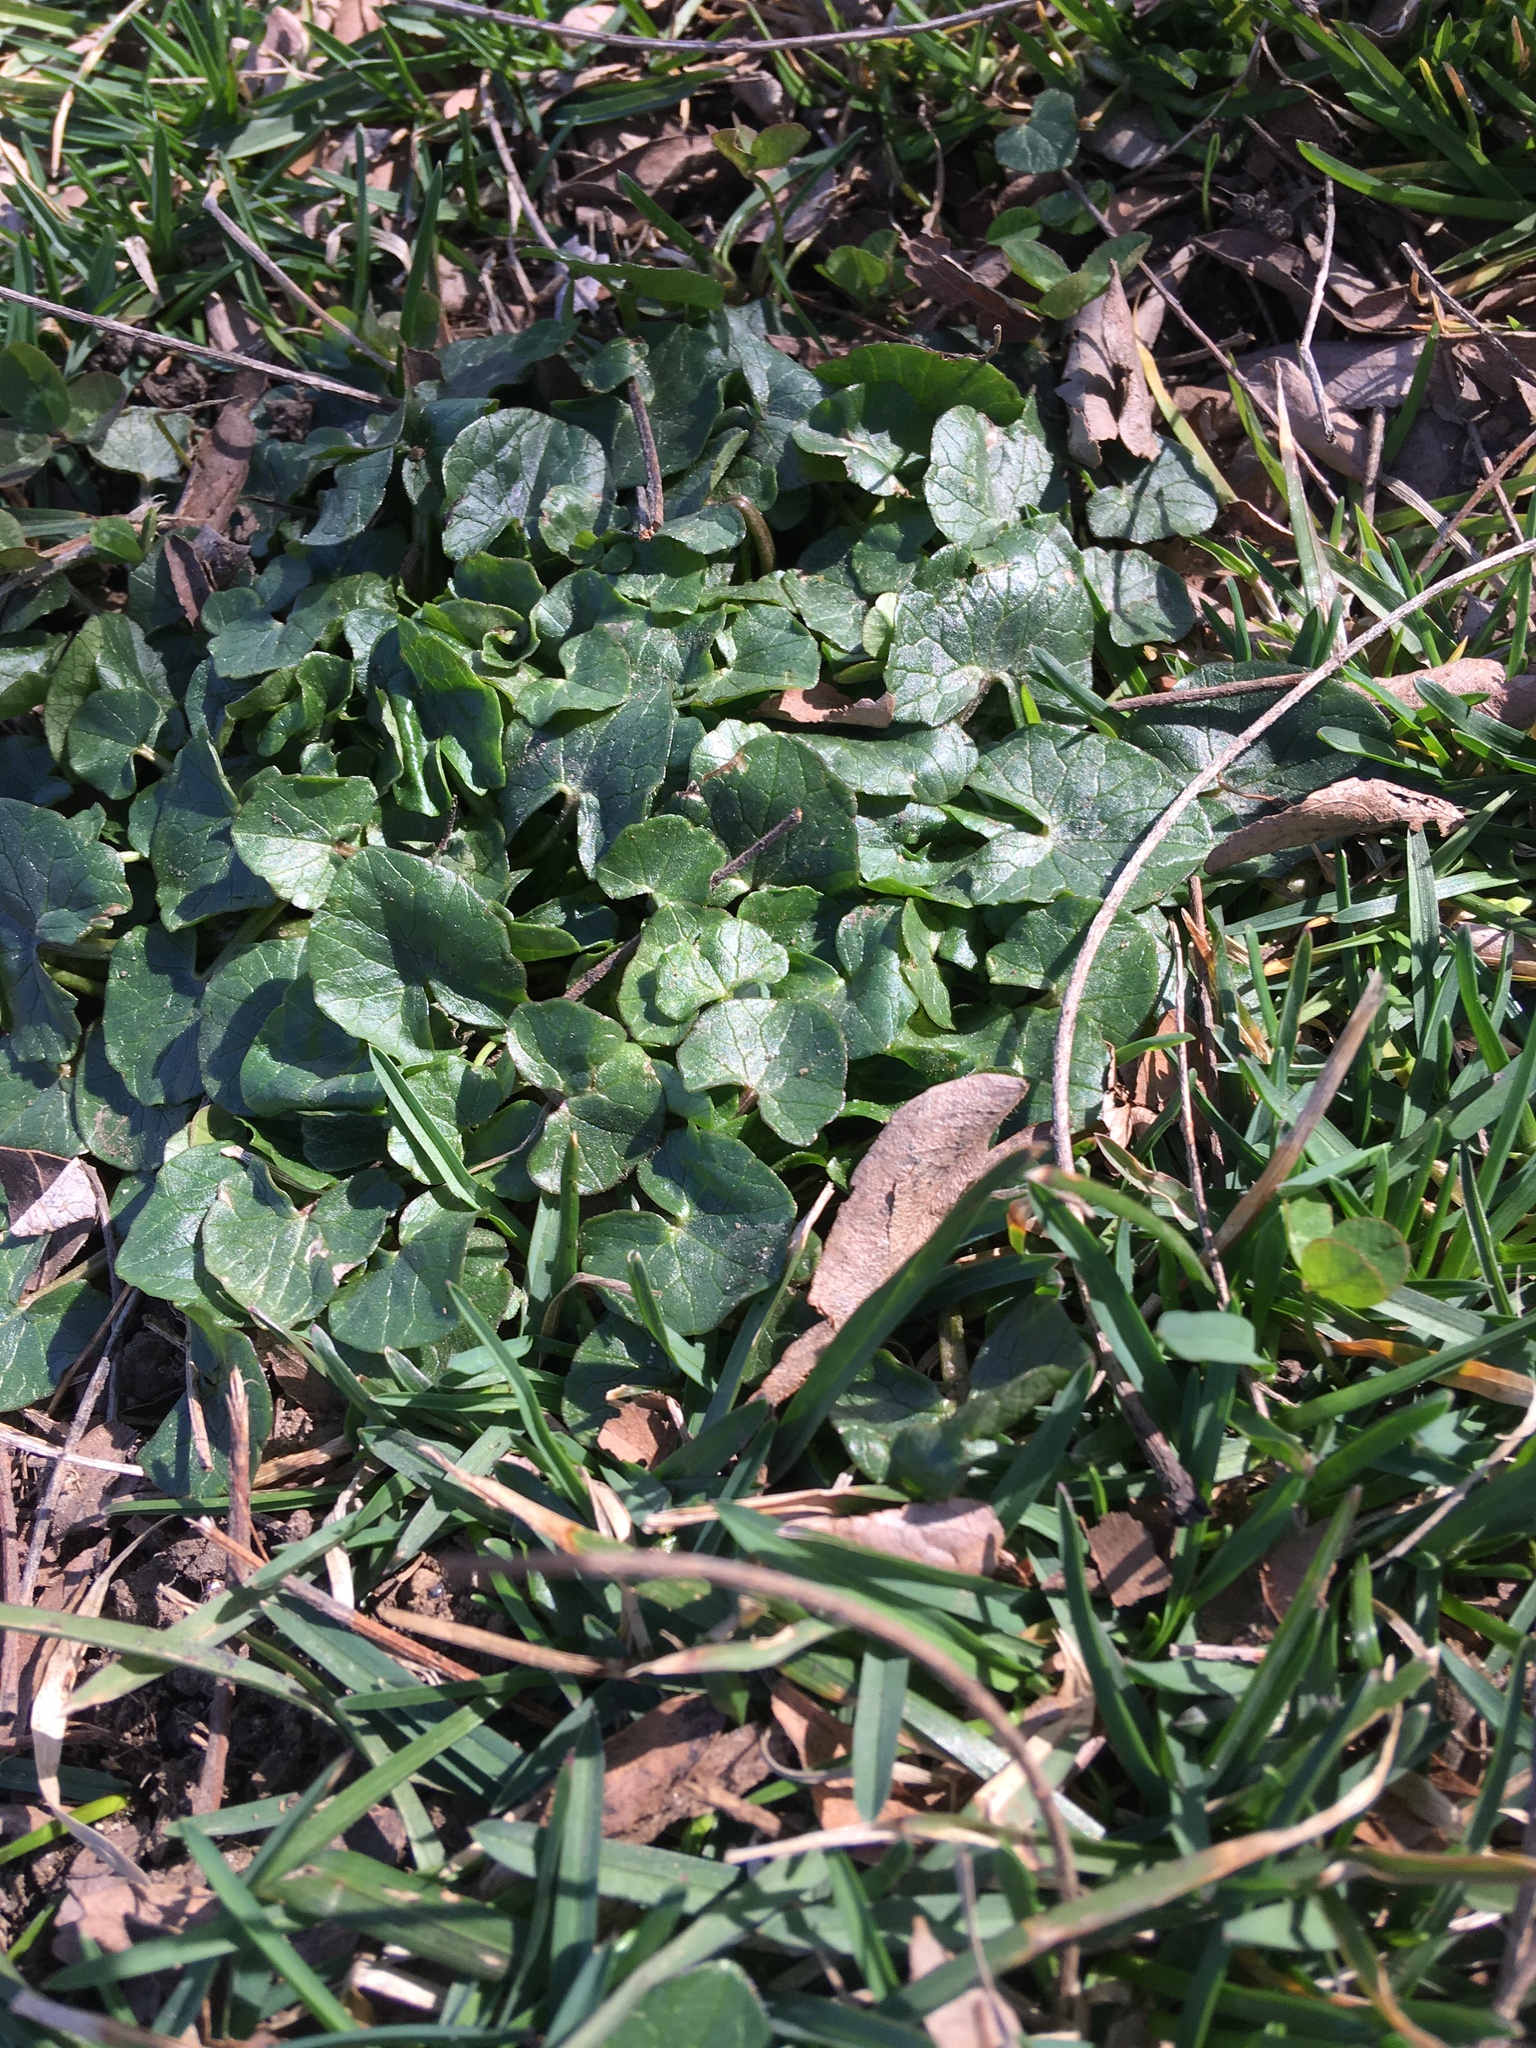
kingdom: Plantae
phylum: Tracheophyta
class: Magnoliopsida
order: Ranunculales
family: Ranunculaceae
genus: Ficaria
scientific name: Ficaria verna
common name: Lesser celandine
